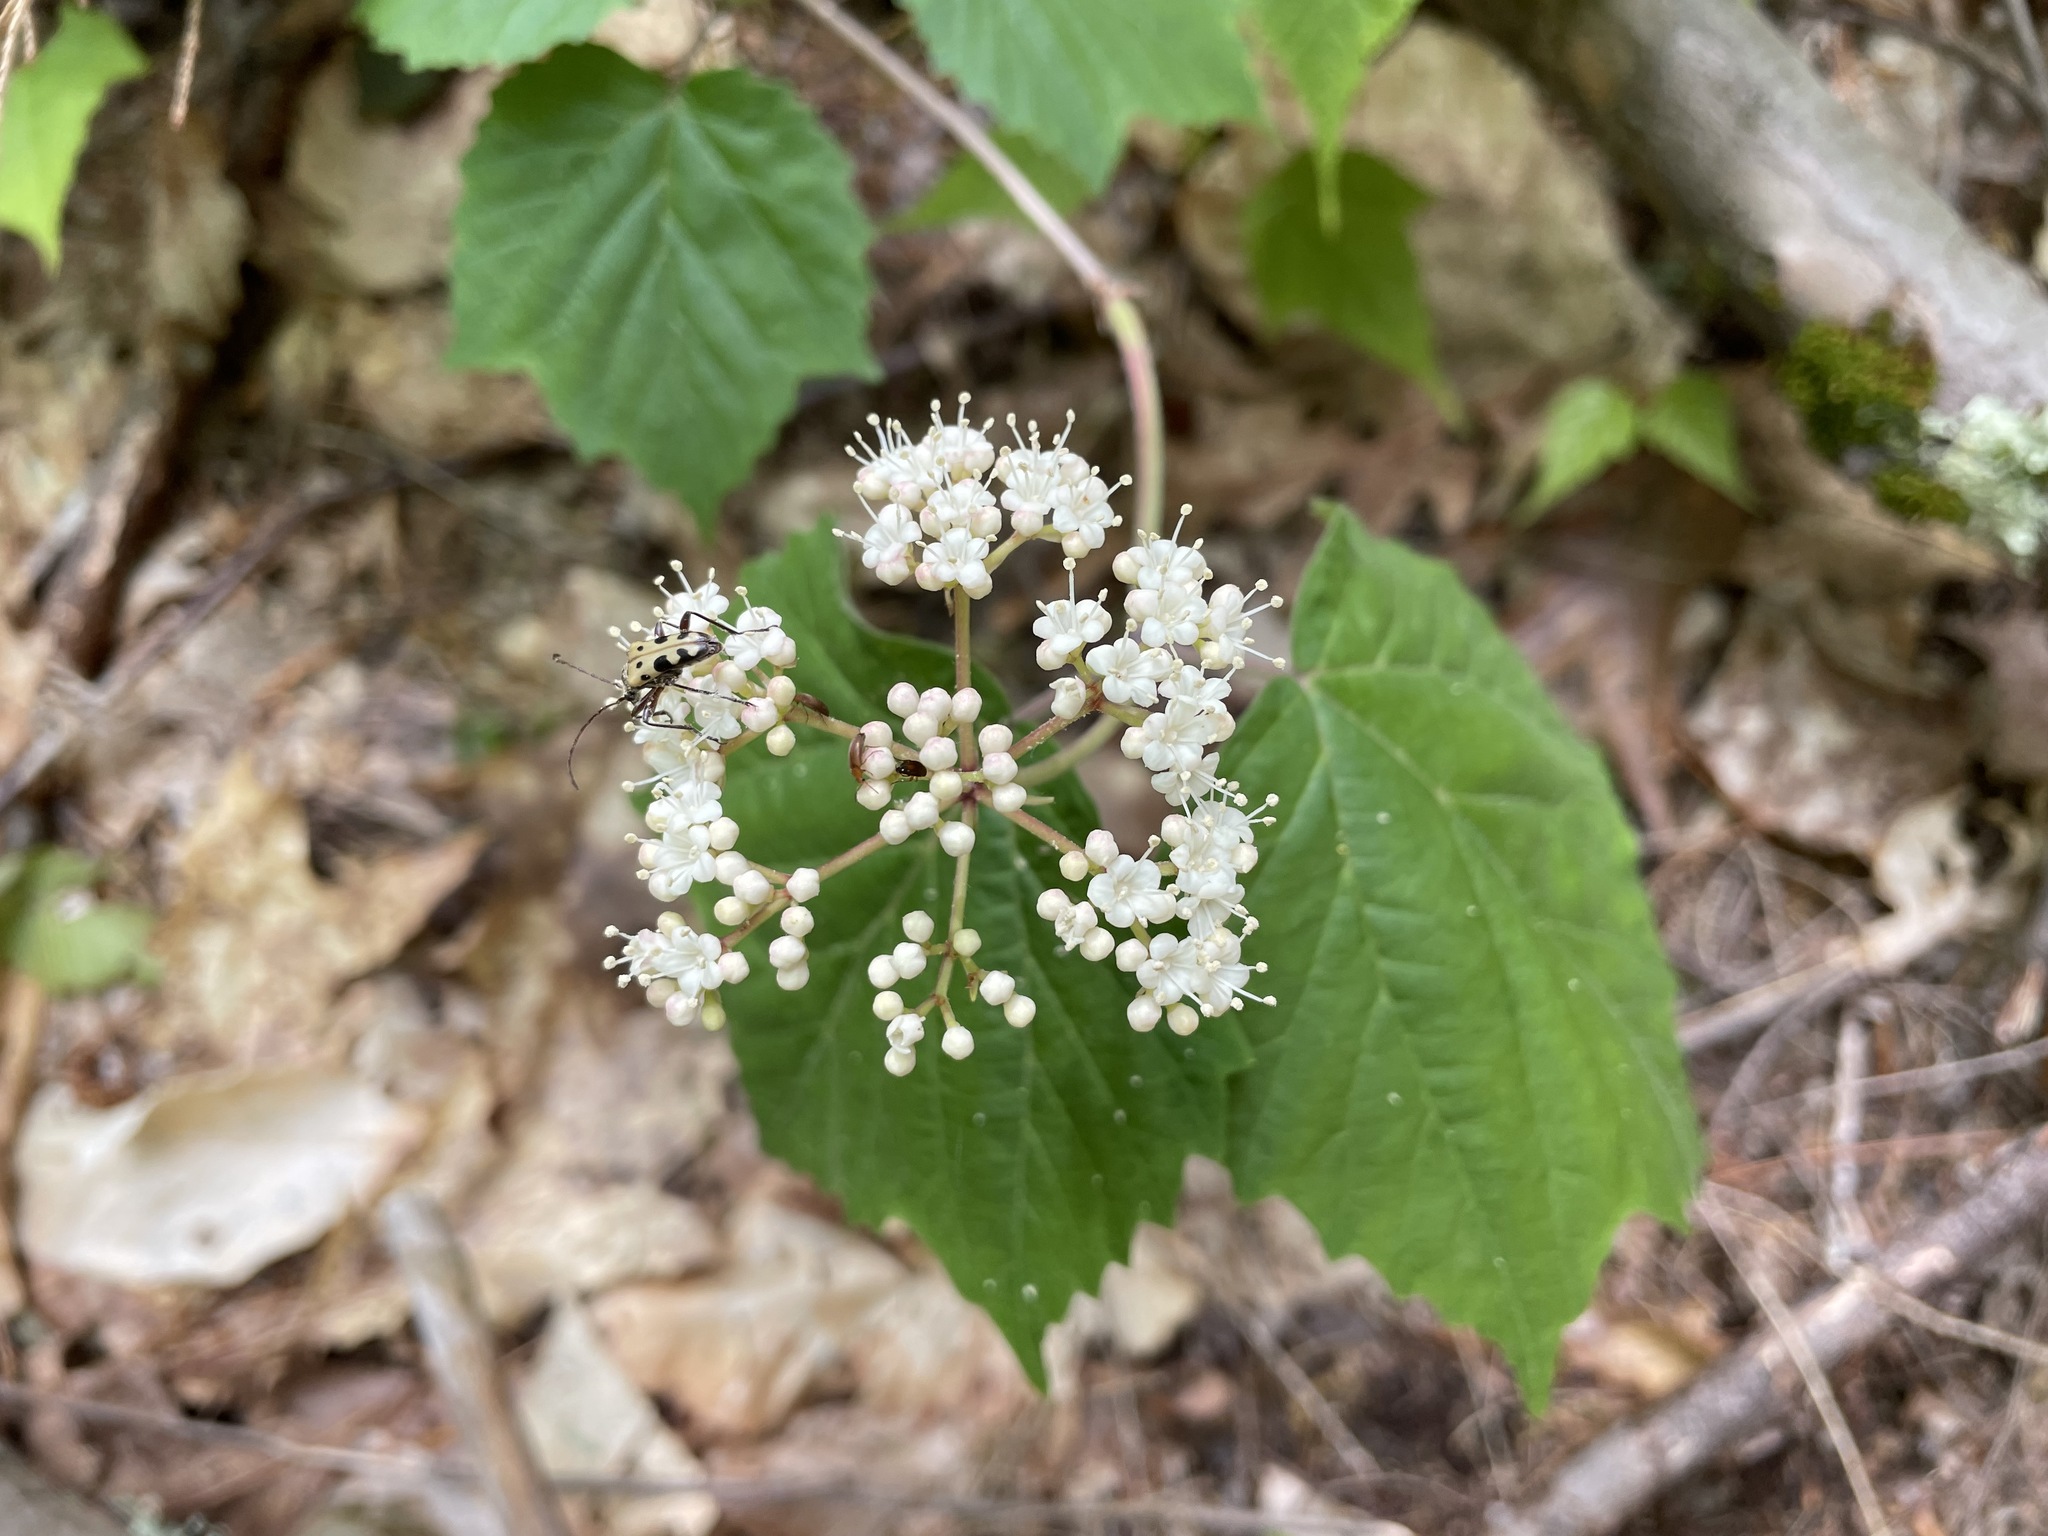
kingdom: Plantae
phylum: Tracheophyta
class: Magnoliopsida
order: Dipsacales
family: Viburnaceae
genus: Viburnum
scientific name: Viburnum acerifolium
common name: Dockmackie
